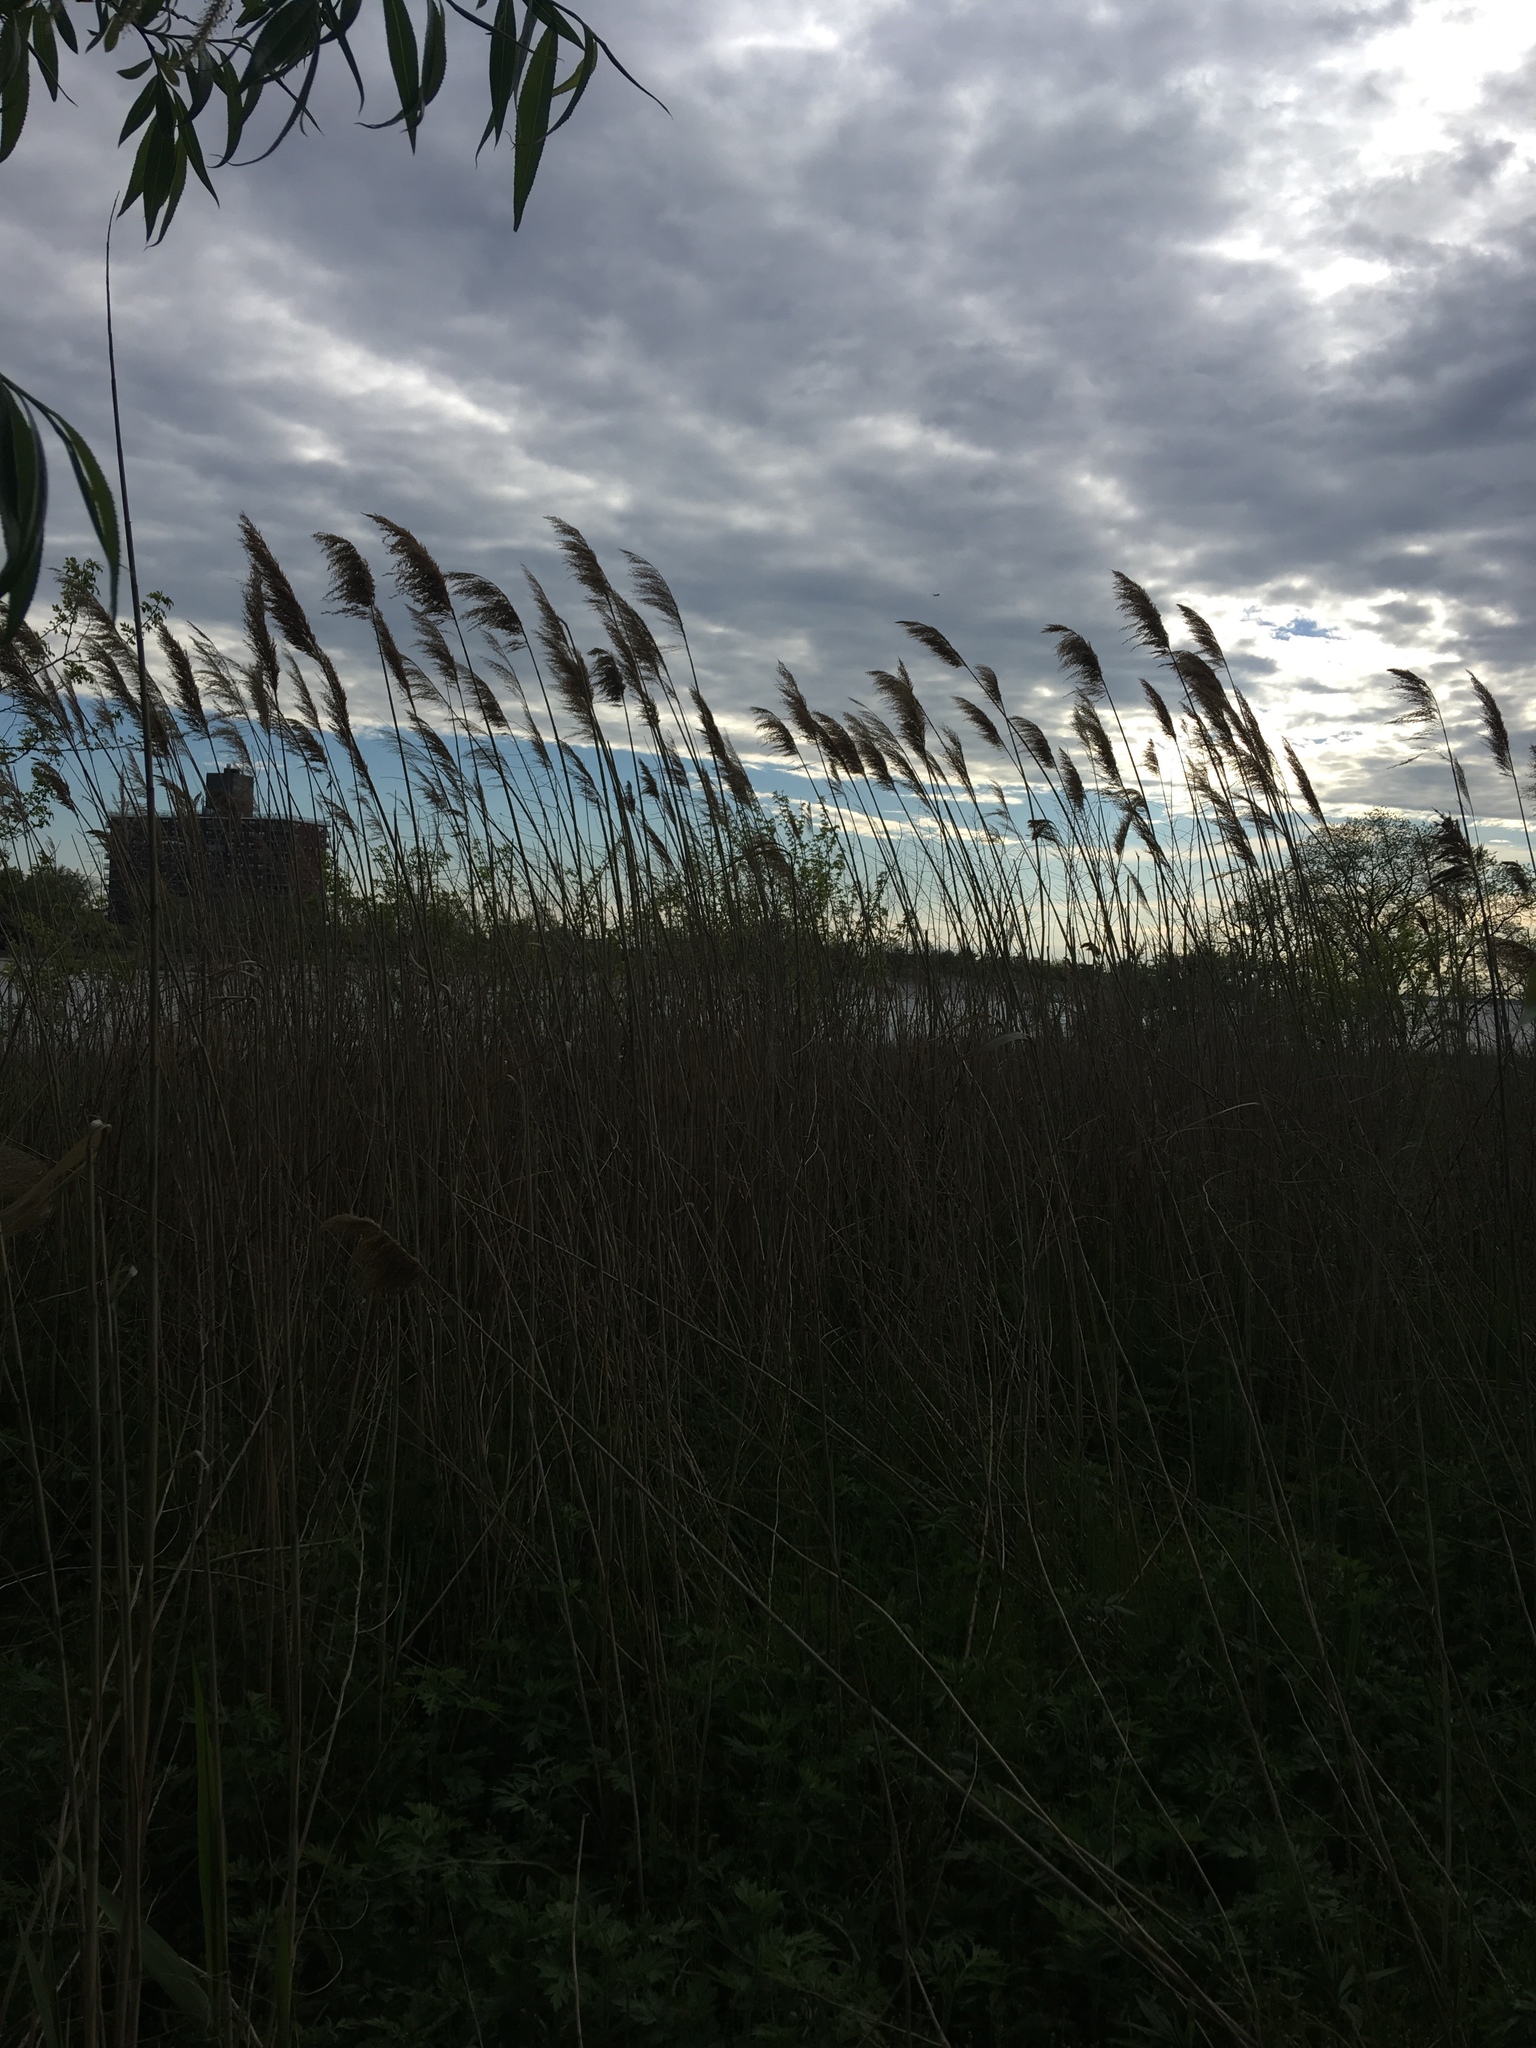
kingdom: Plantae
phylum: Tracheophyta
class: Liliopsida
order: Poales
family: Poaceae
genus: Phragmites
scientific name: Phragmites australis
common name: Common reed
